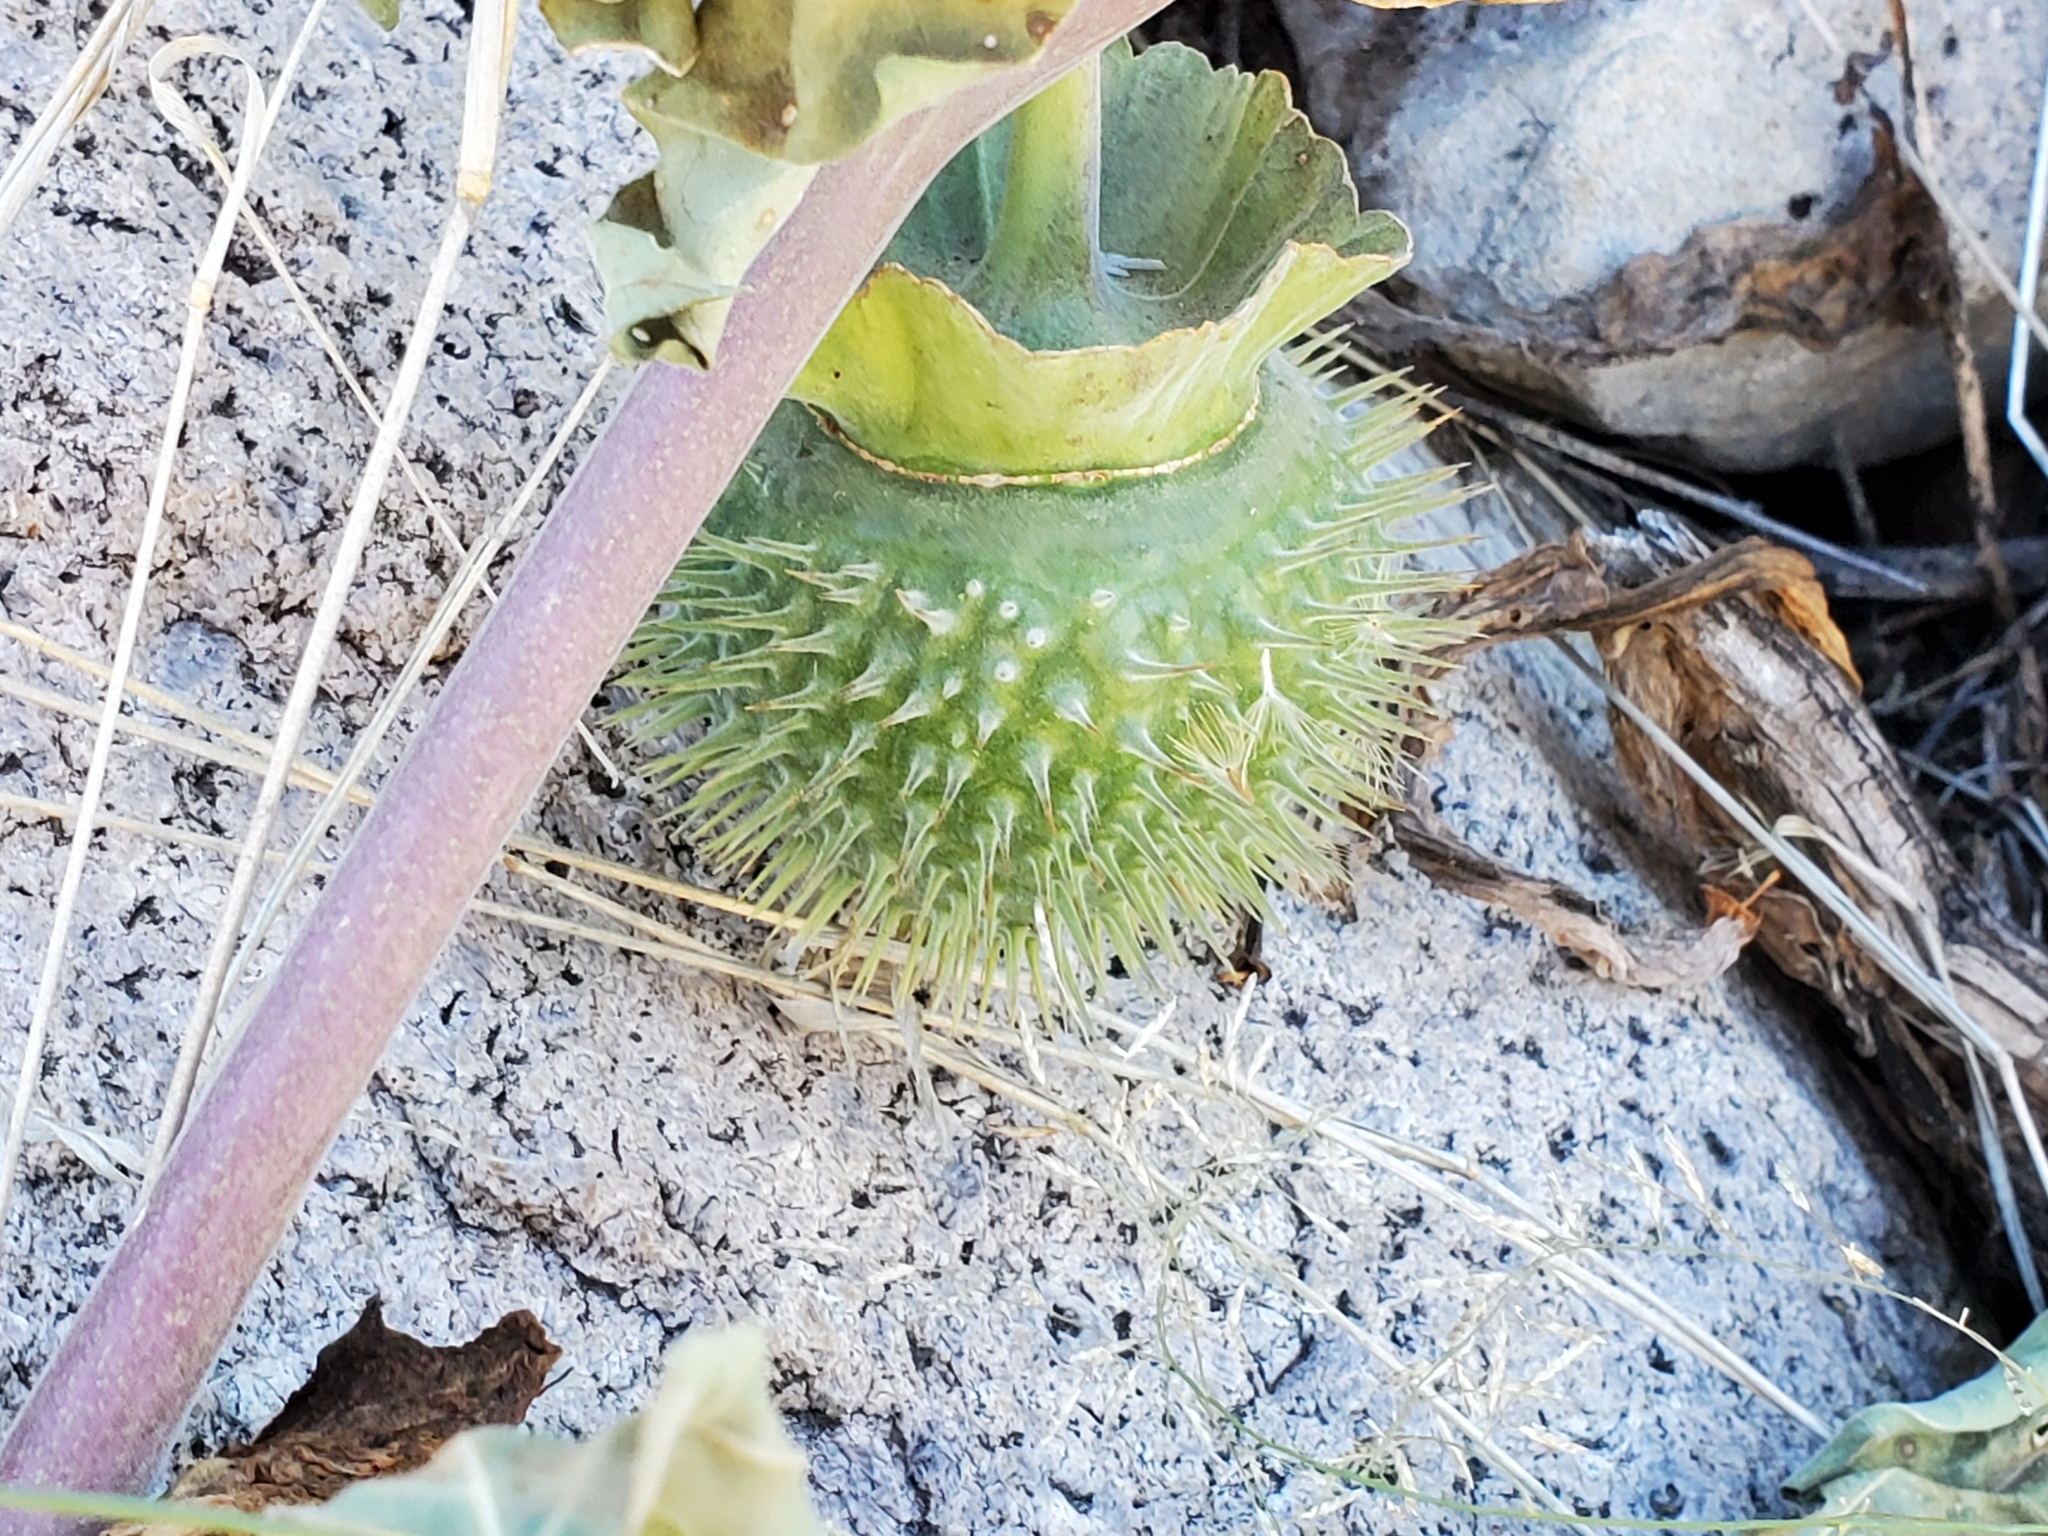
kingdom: Plantae
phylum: Tracheophyta
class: Magnoliopsida
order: Solanales
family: Solanaceae
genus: Datura
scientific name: Datura wrightii
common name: Sacred thorn-apple
